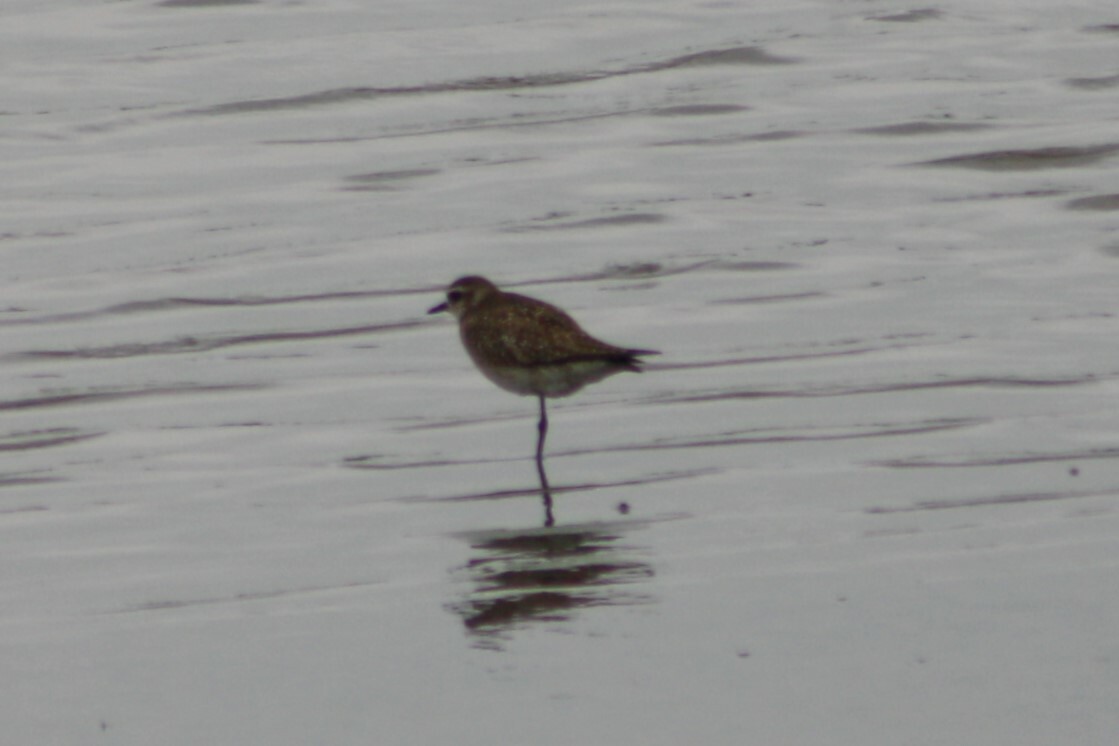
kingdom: Animalia
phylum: Chordata
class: Aves
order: Charadriiformes
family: Charadriidae
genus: Pluvialis
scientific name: Pluvialis dominica
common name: American golden plover
